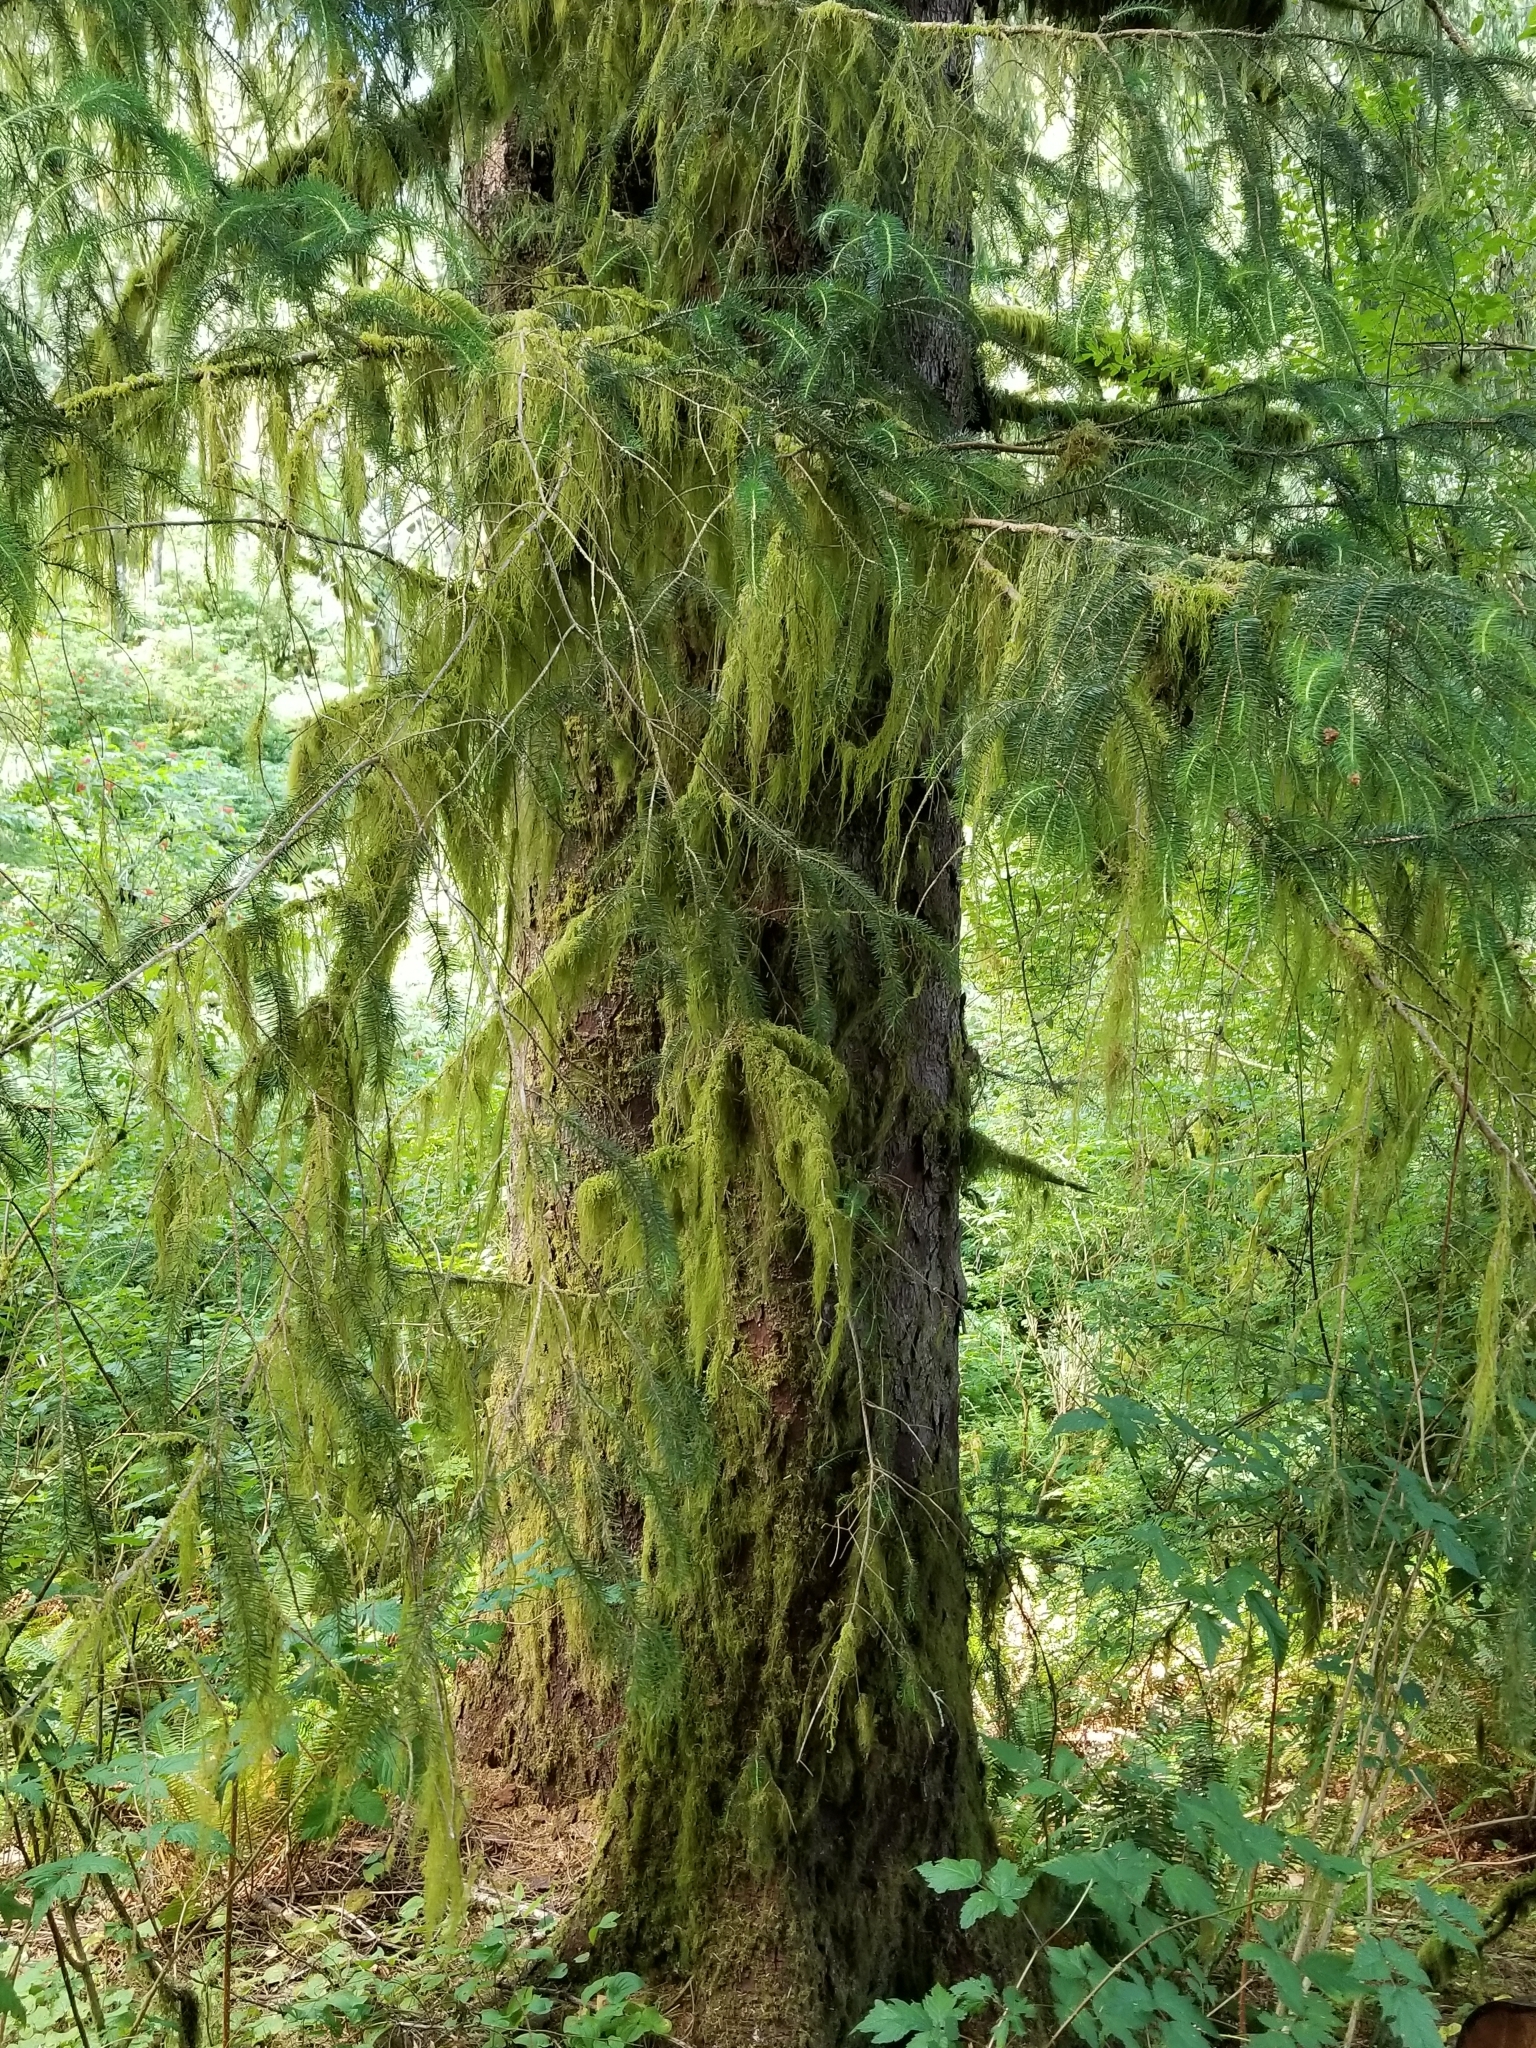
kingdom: Plantae
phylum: Tracheophyta
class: Pinopsida
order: Pinales
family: Pinaceae
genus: Picea
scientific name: Picea sitchensis
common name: Sitka spruce
